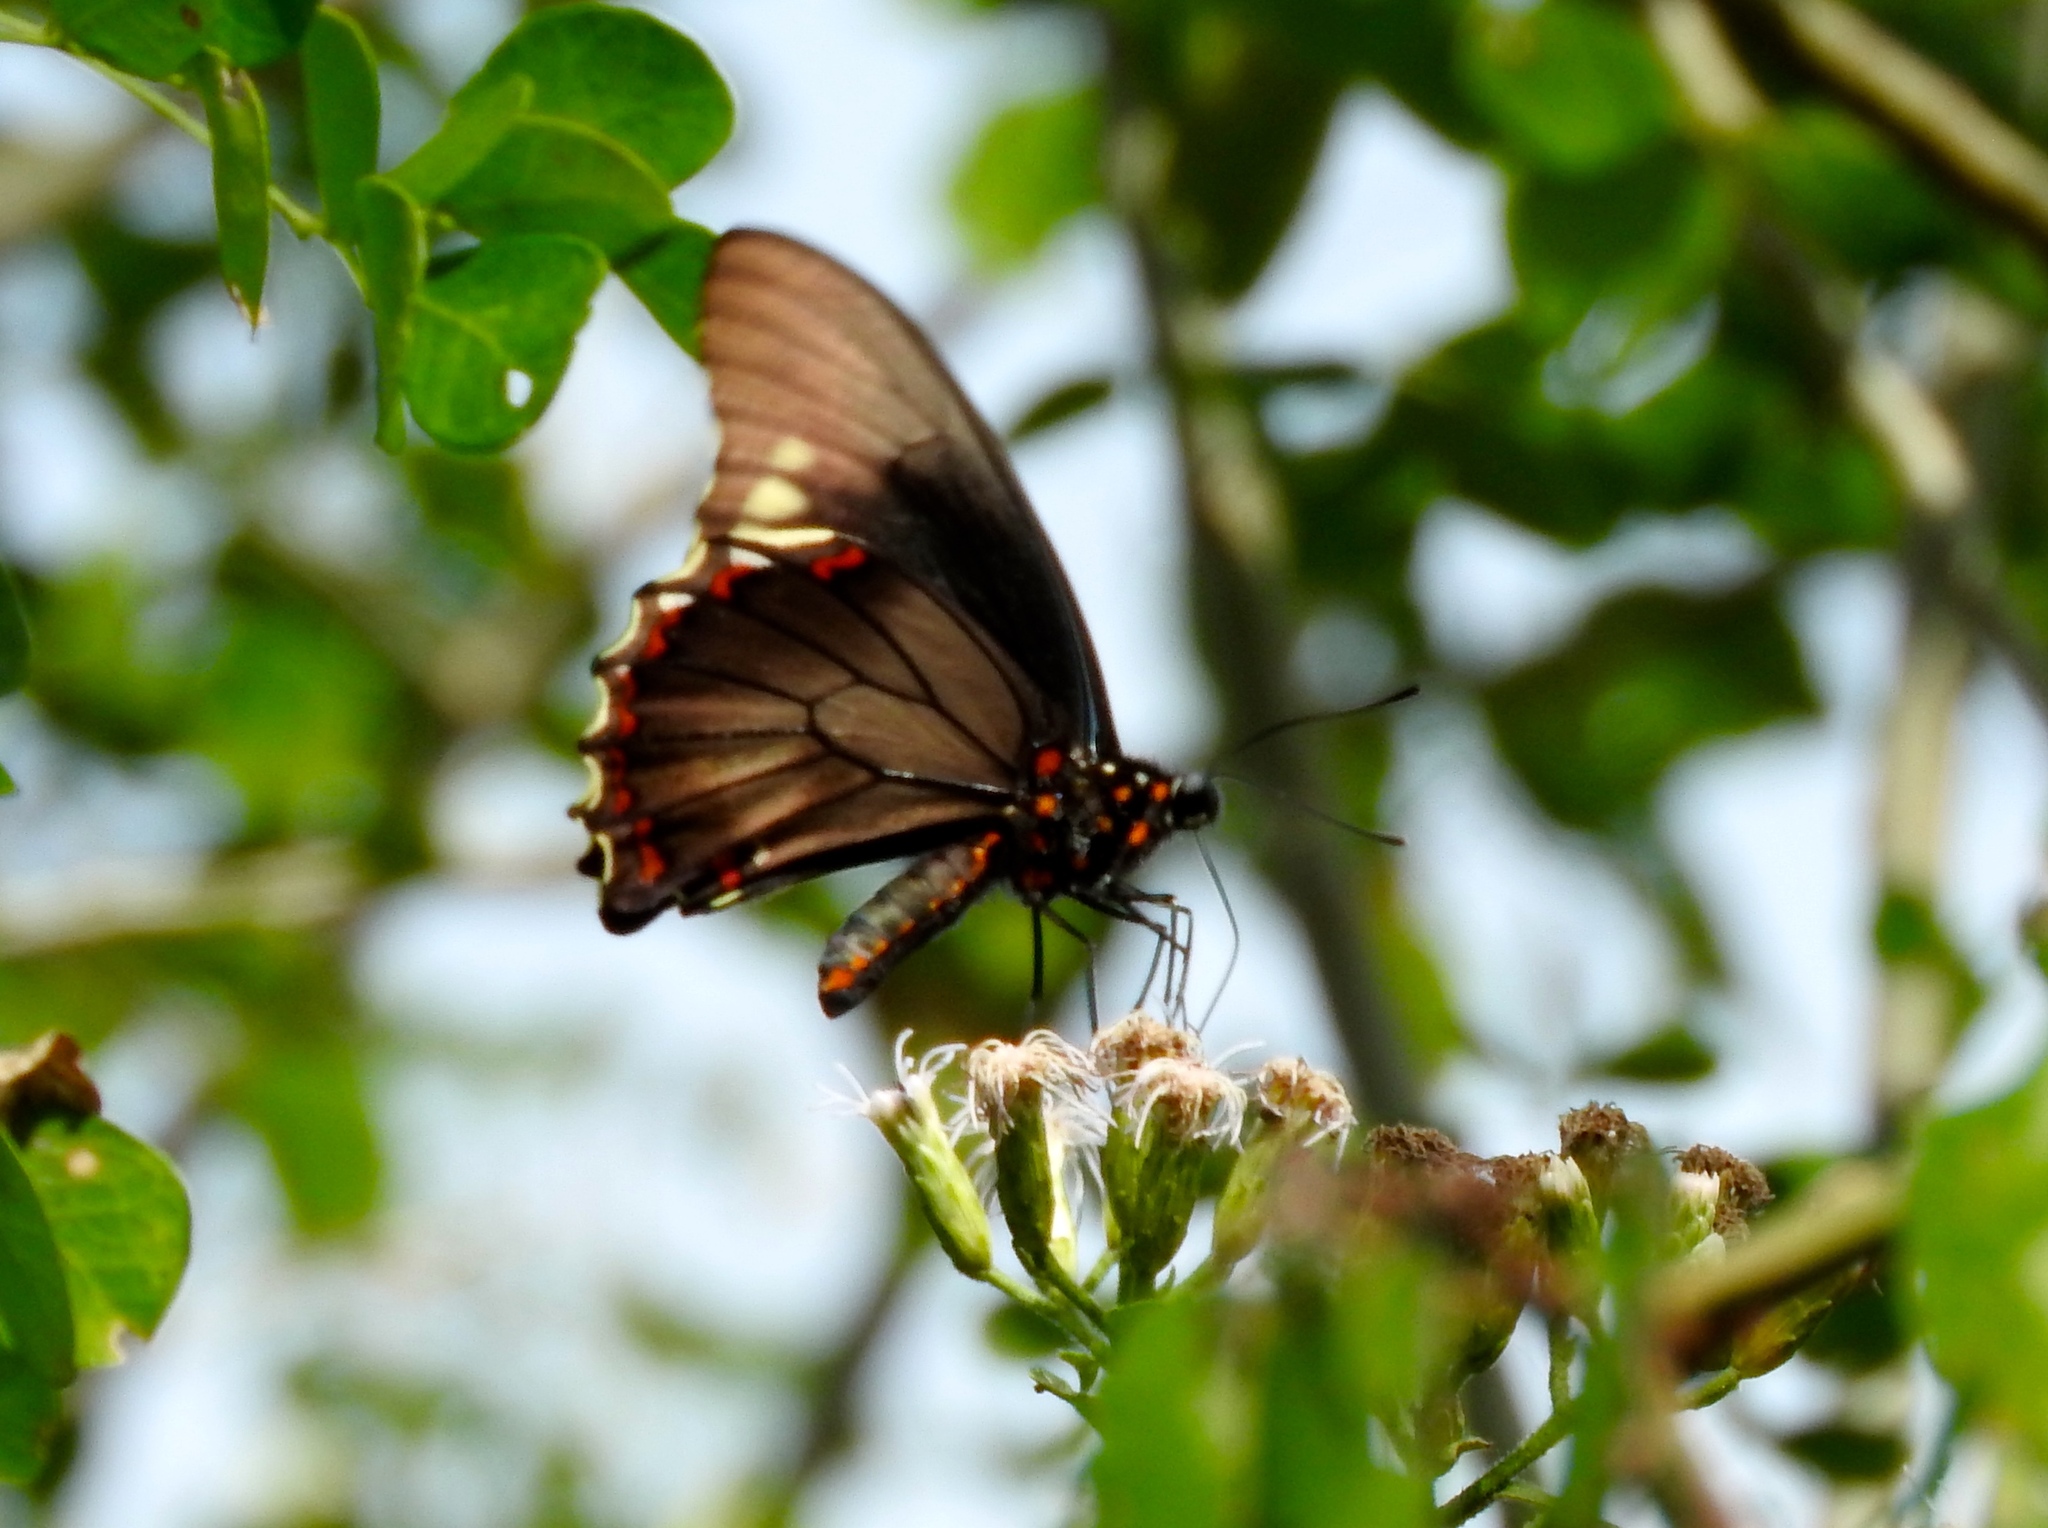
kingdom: Animalia
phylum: Arthropoda
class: Insecta
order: Lepidoptera
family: Papilionidae
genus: Battus
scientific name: Battus polydamas
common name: Polydamas swallowtail
